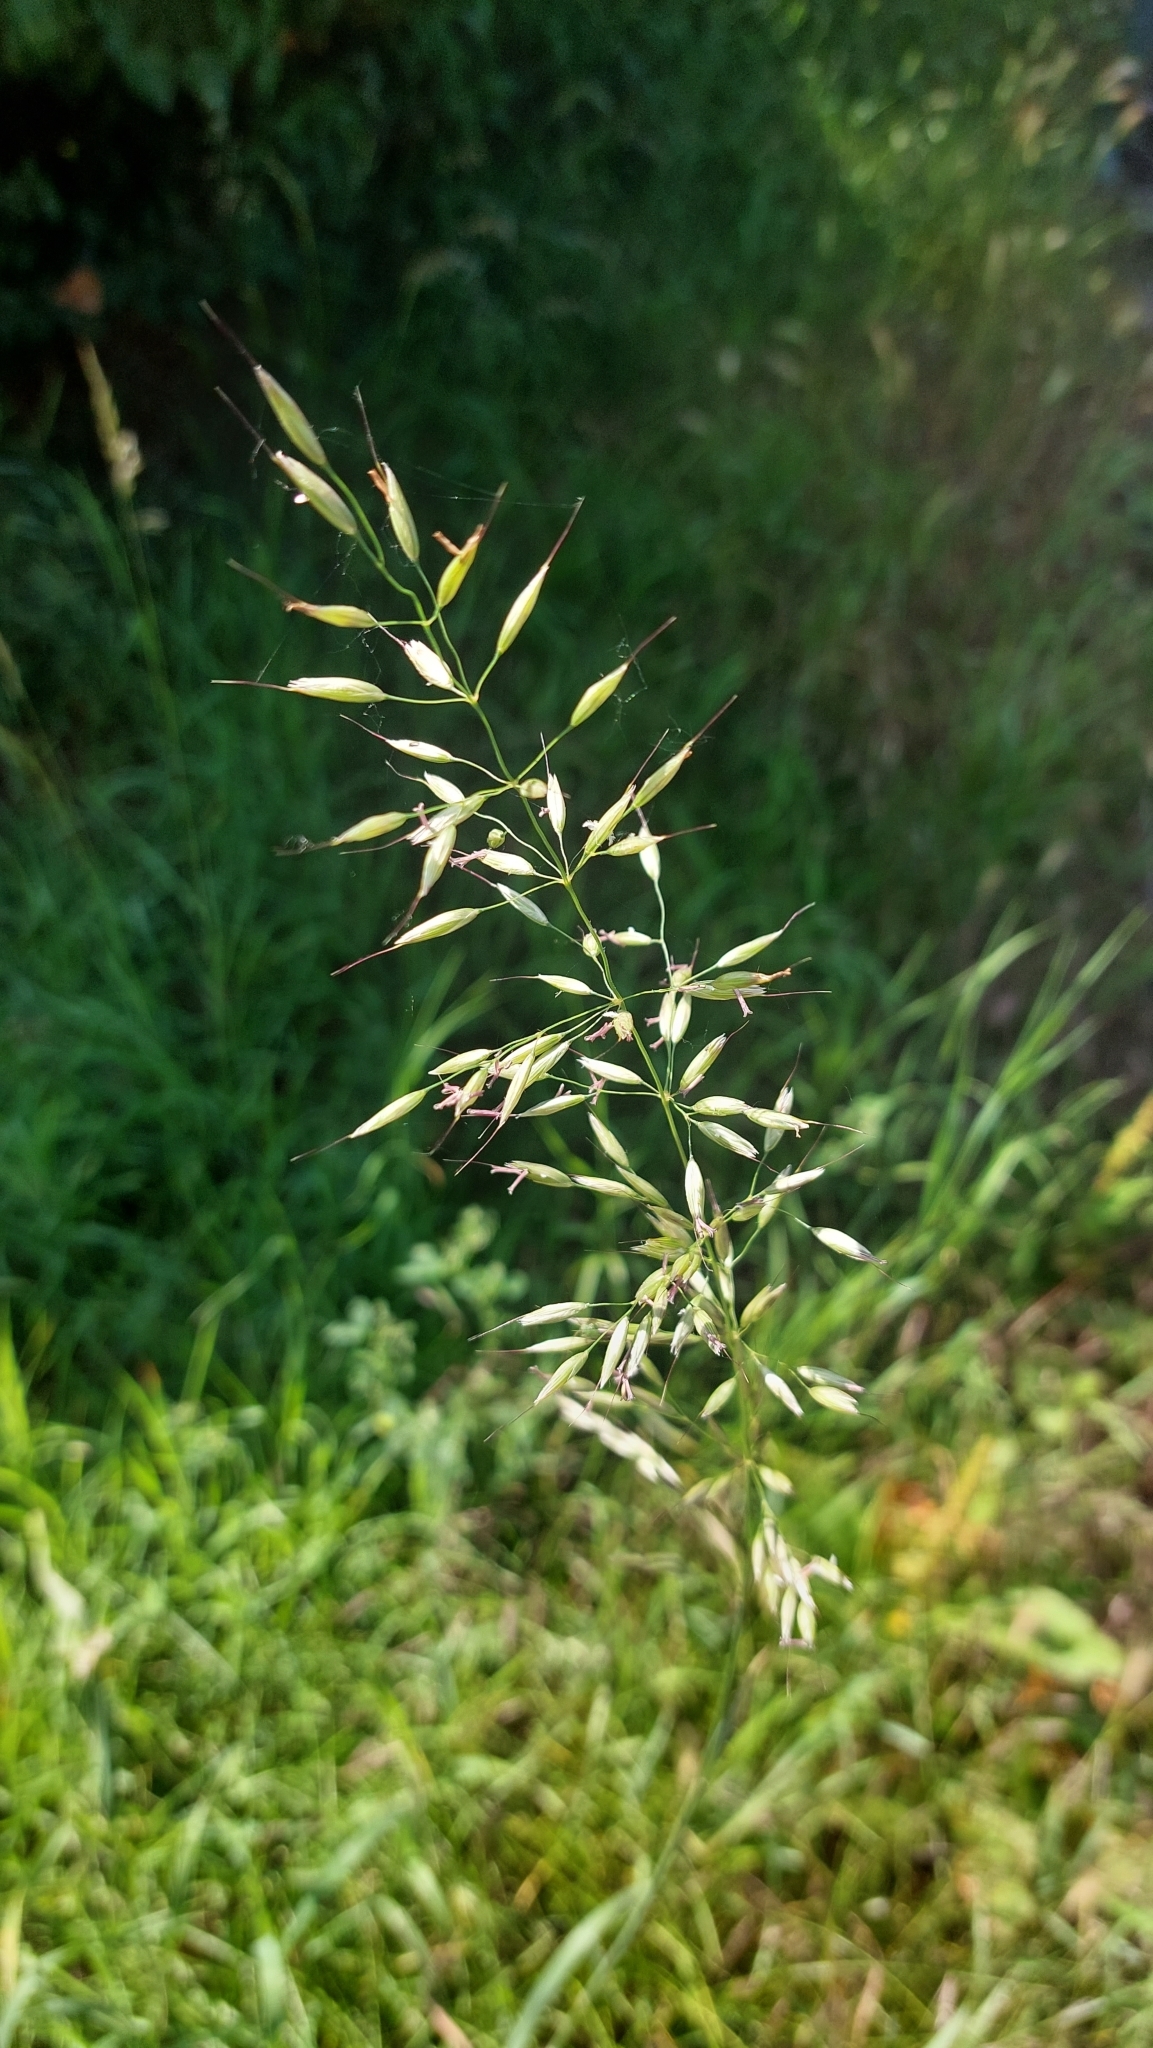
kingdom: Plantae
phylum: Tracheophyta
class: Liliopsida
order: Poales
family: Poaceae
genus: Arrhenatherum
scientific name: Arrhenatherum elatius
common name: Tall oatgrass
